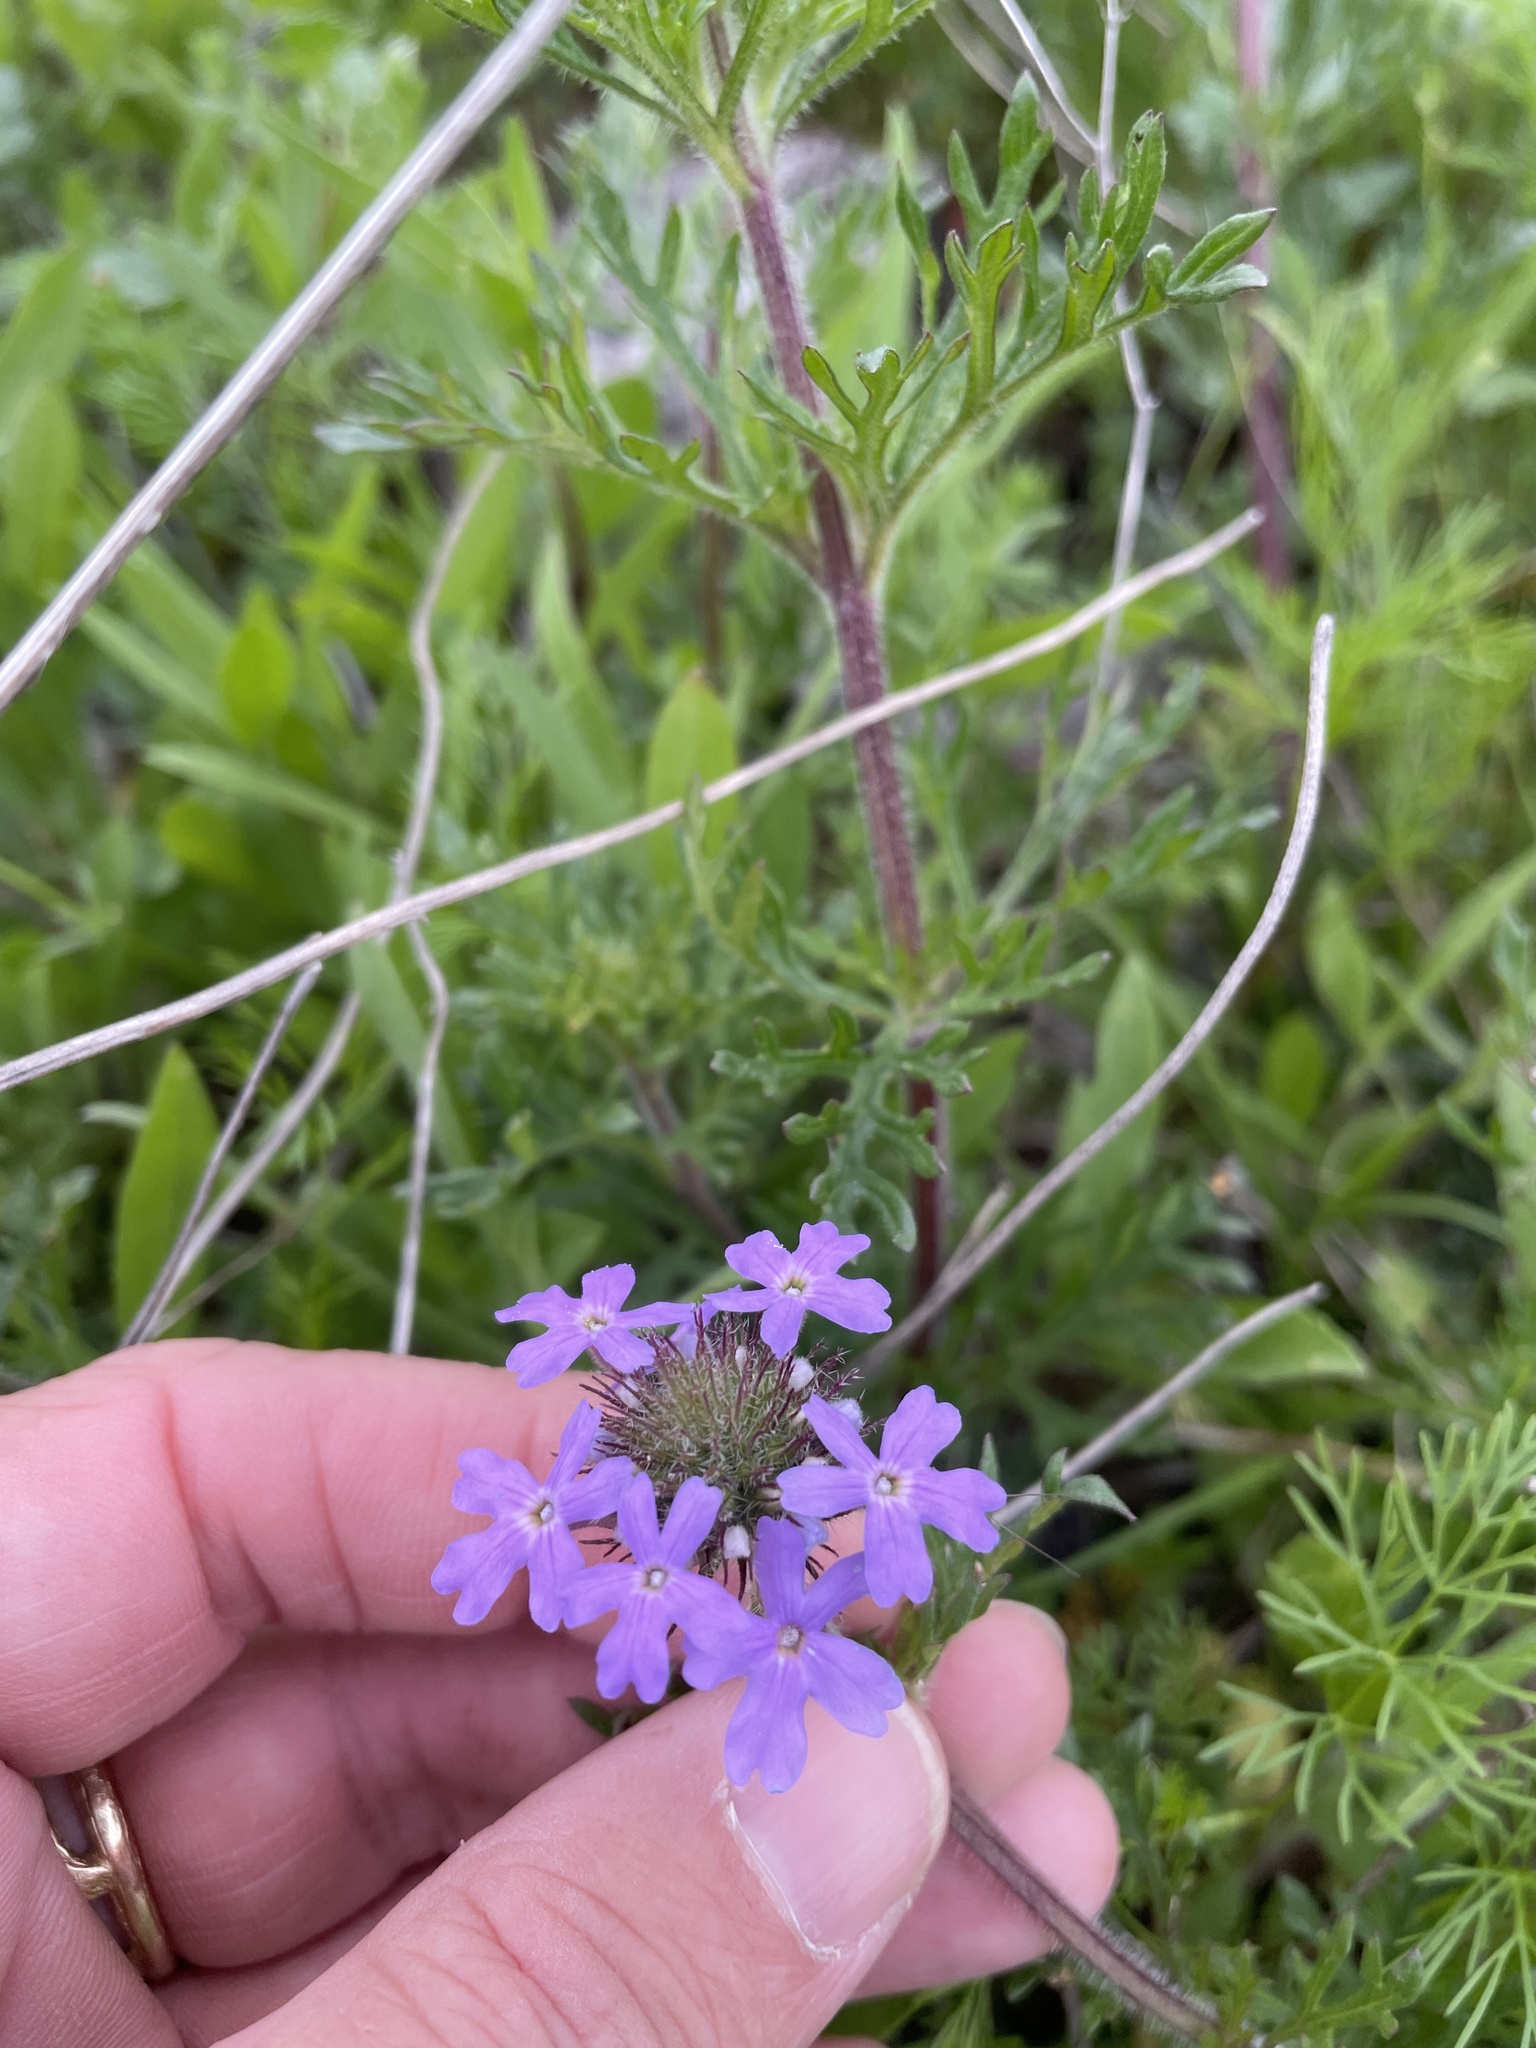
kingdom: Plantae
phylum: Tracheophyta
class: Magnoliopsida
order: Lamiales
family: Verbenaceae
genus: Verbena
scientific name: Verbena bipinnatifida
